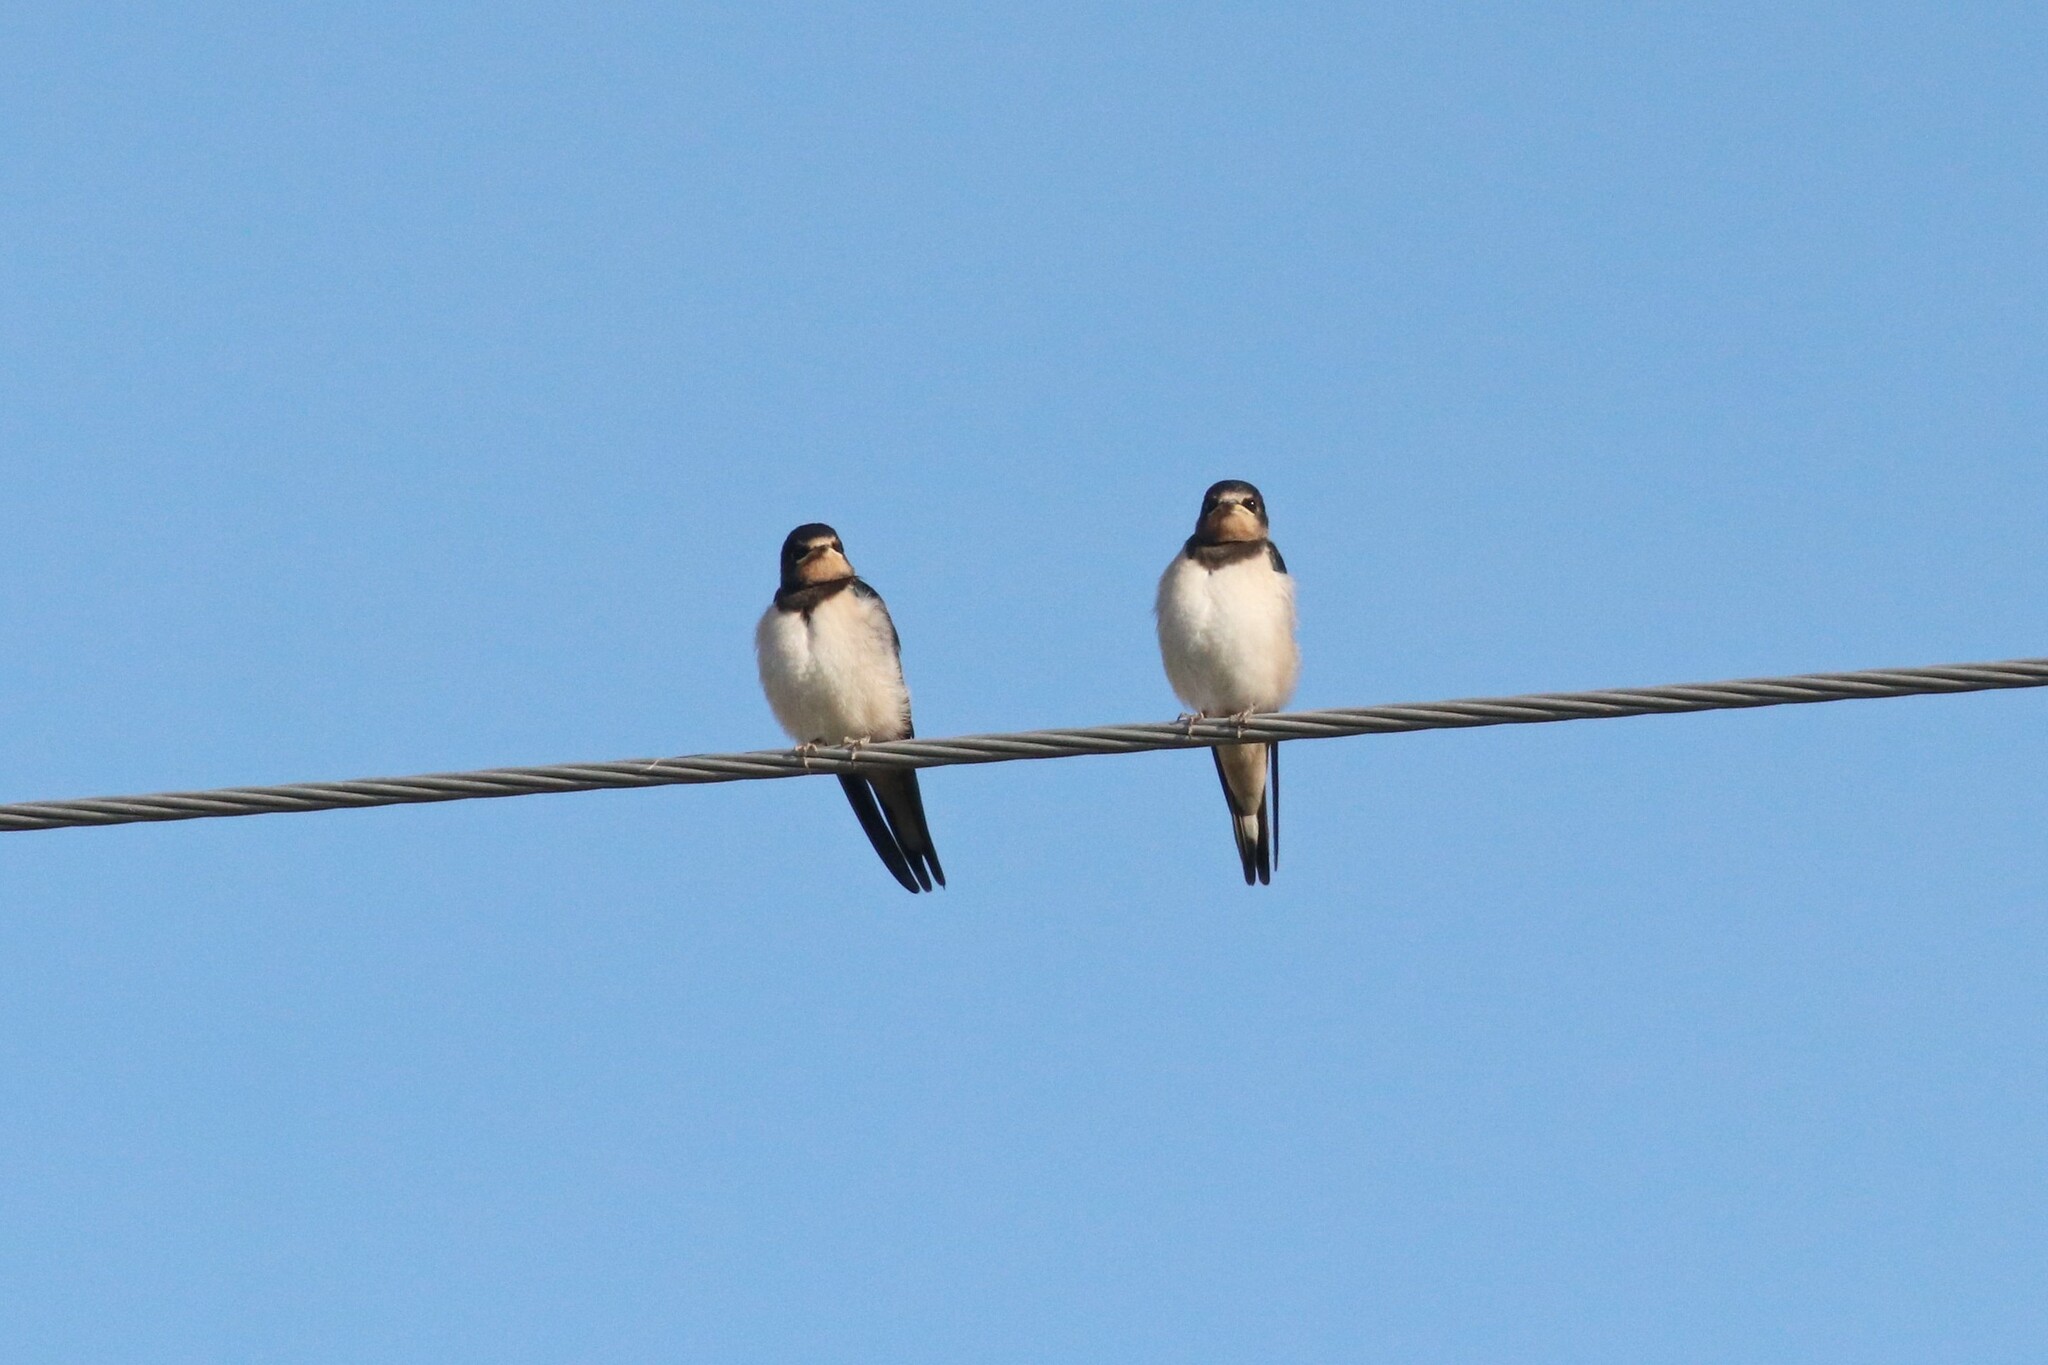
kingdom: Animalia
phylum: Chordata
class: Aves
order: Passeriformes
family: Hirundinidae
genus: Hirundo
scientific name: Hirundo rustica
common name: Barn swallow
